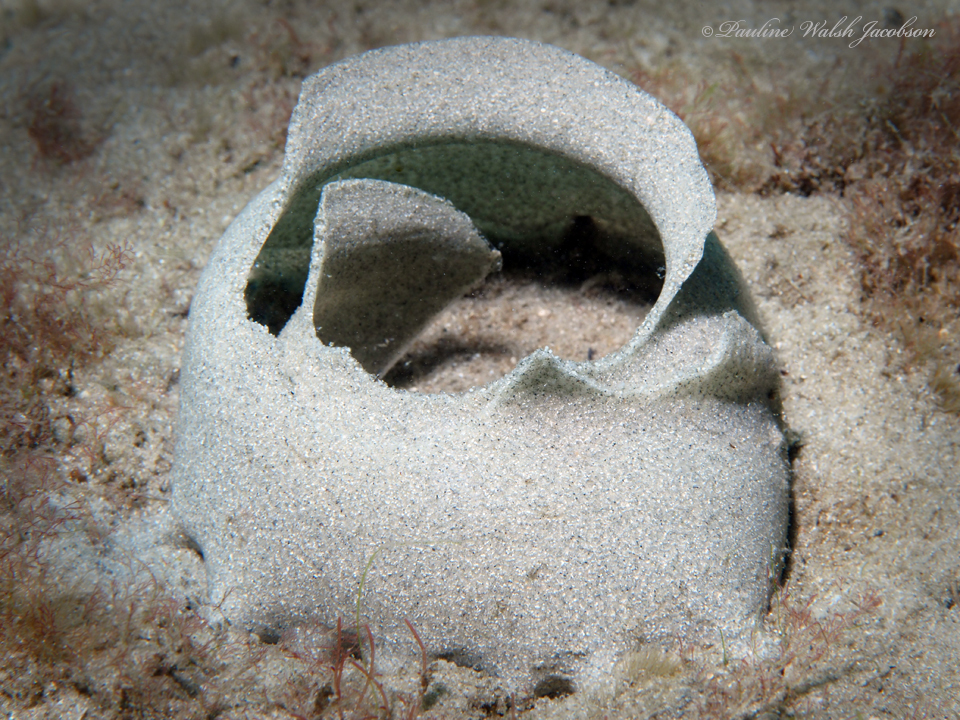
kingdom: Animalia
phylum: Mollusca
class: Gastropoda
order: Littorinimorpha
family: Naticidae
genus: Naticarius
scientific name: Naticarius canrena
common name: Colorful moonsnail
